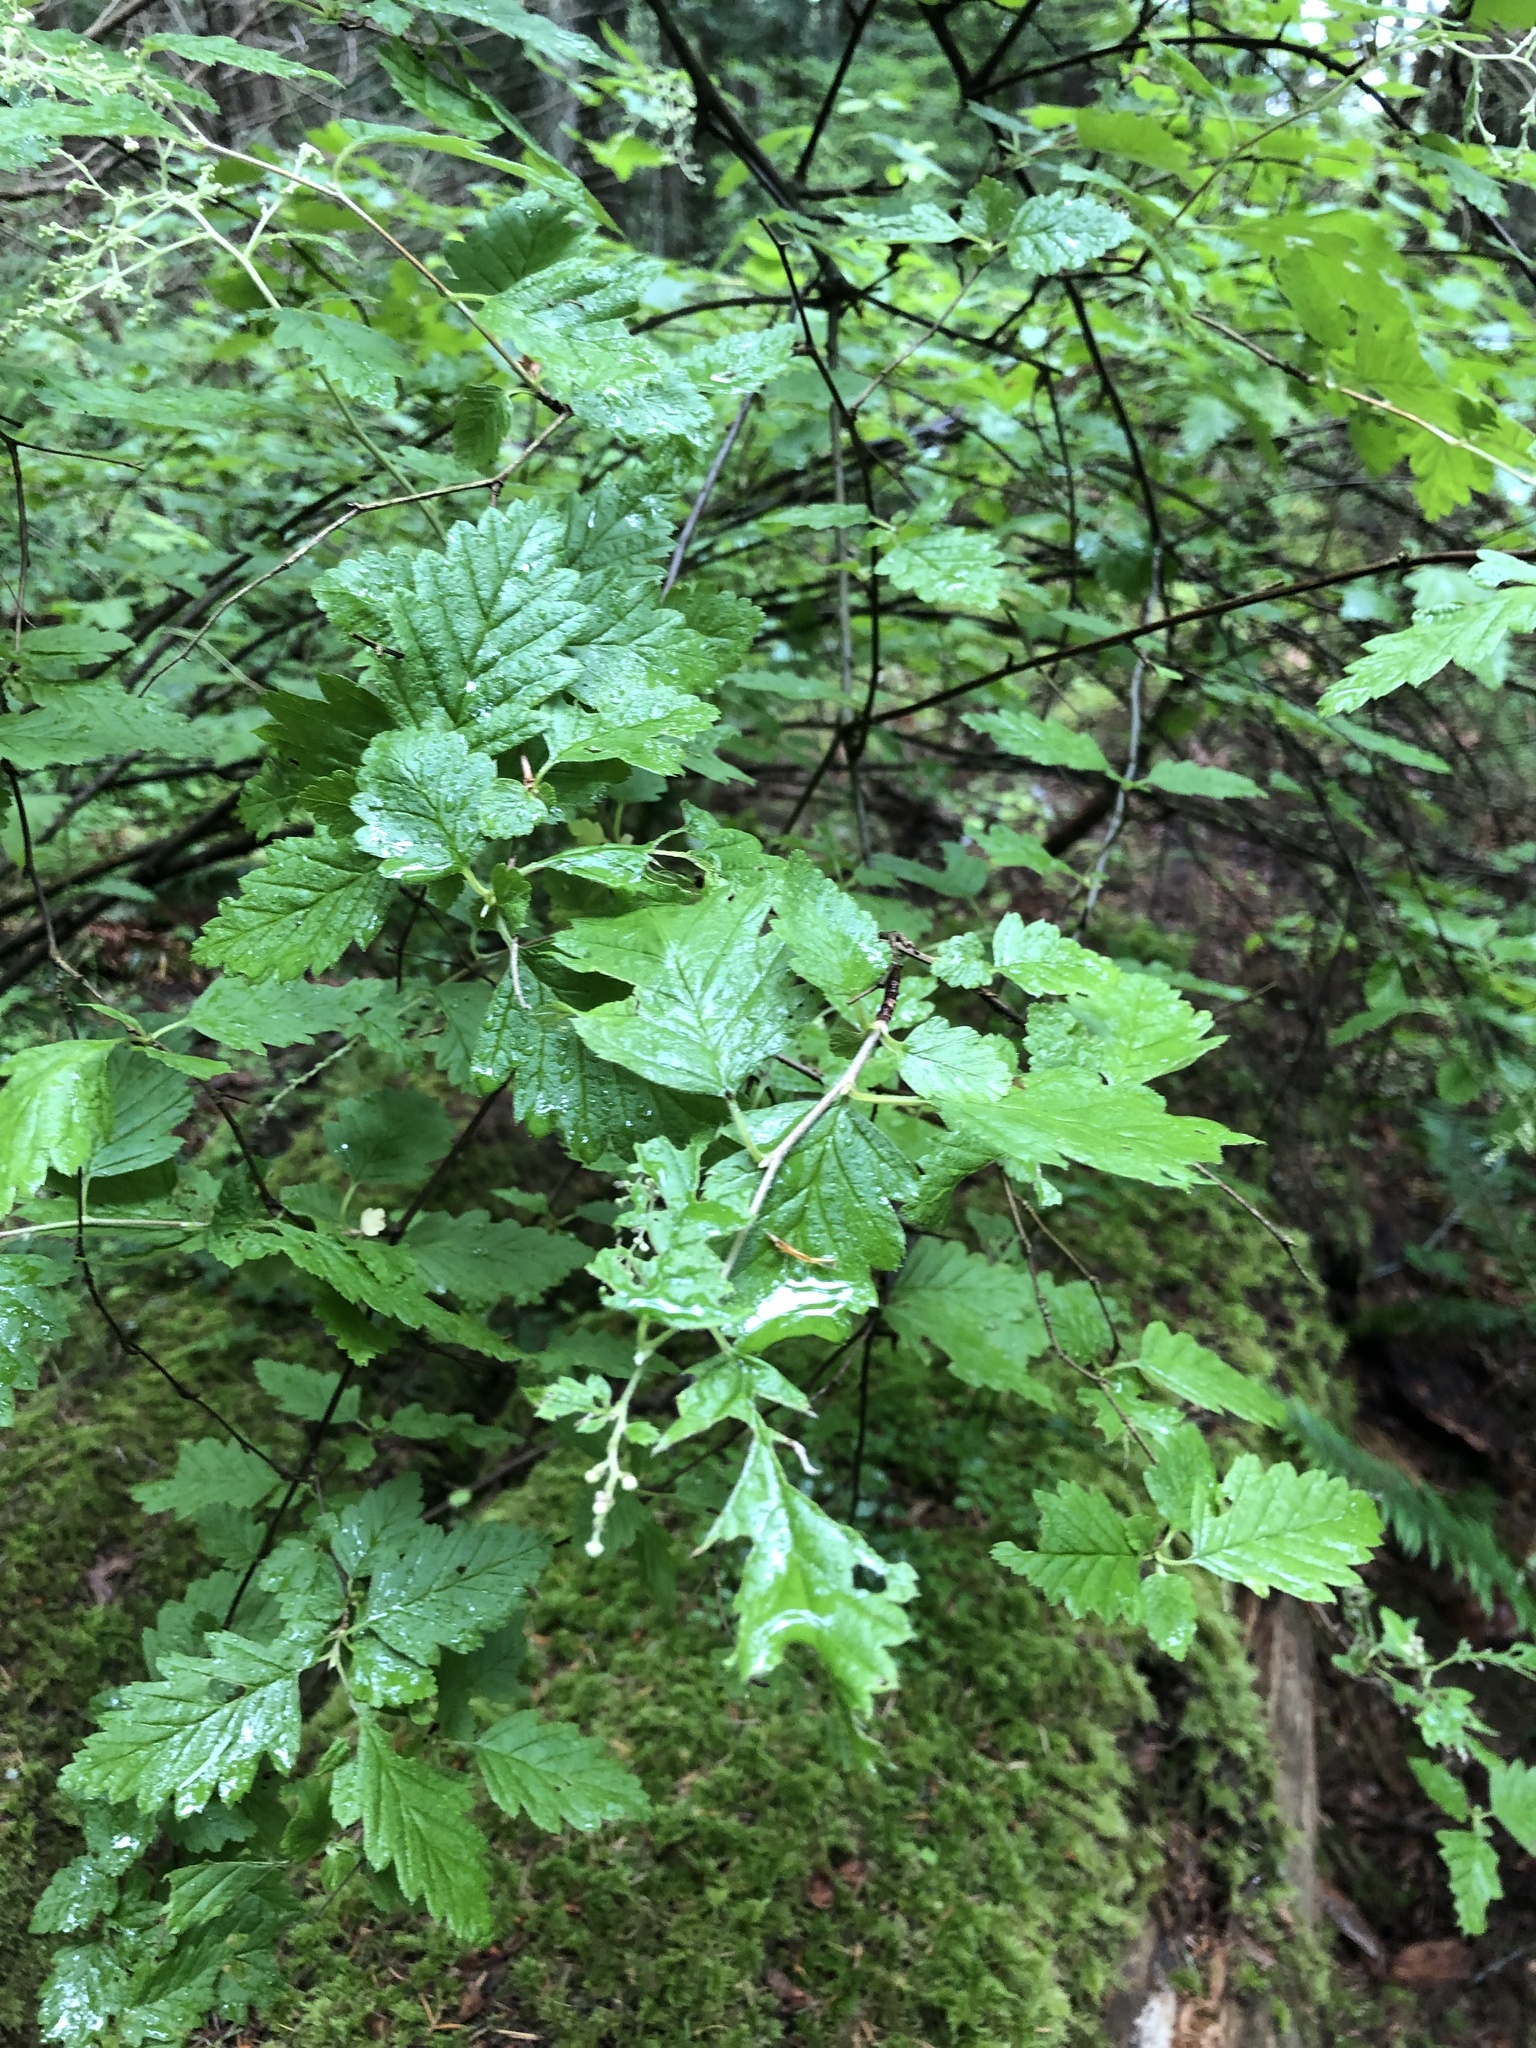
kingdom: Plantae
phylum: Tracheophyta
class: Magnoliopsida
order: Rosales
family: Rosaceae
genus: Holodiscus
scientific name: Holodiscus discolor
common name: Oceanspray
